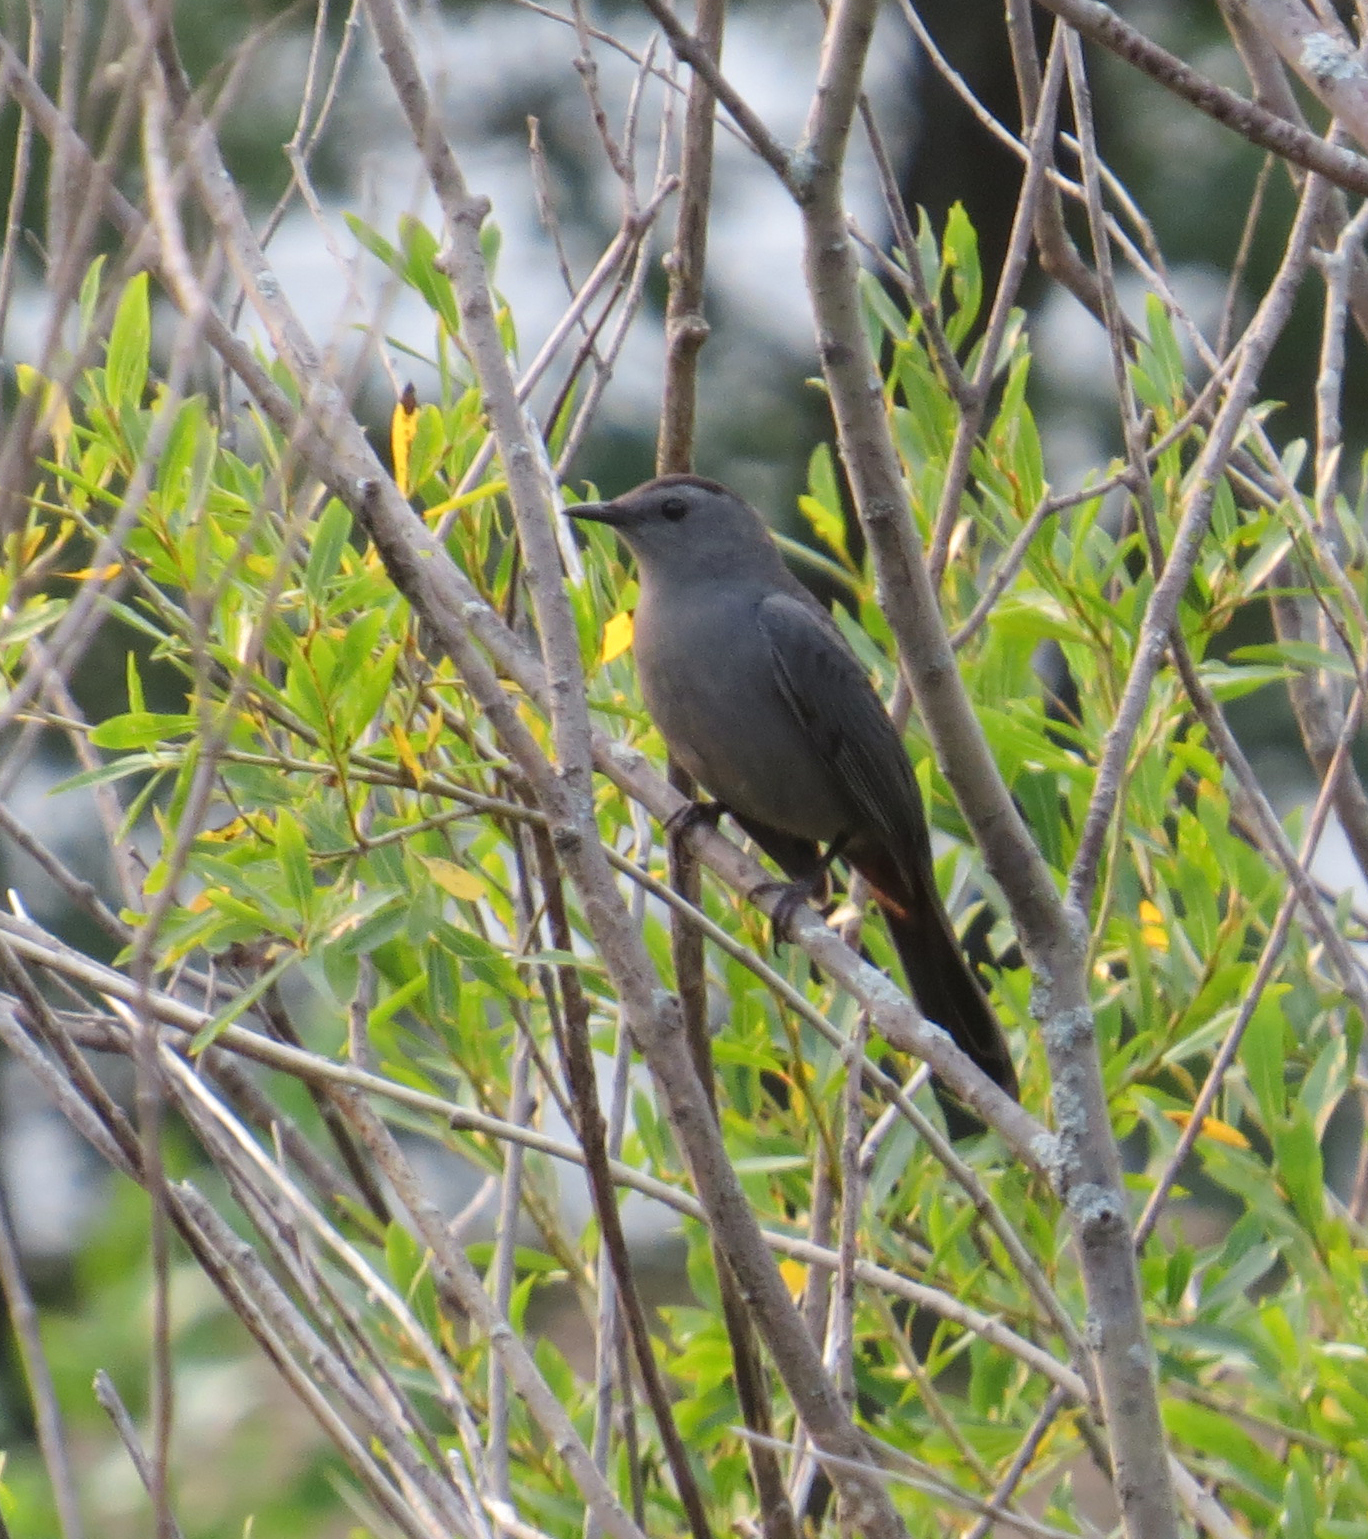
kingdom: Animalia
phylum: Chordata
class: Aves
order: Passeriformes
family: Mimidae
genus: Dumetella
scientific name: Dumetella carolinensis
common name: Gray catbird
